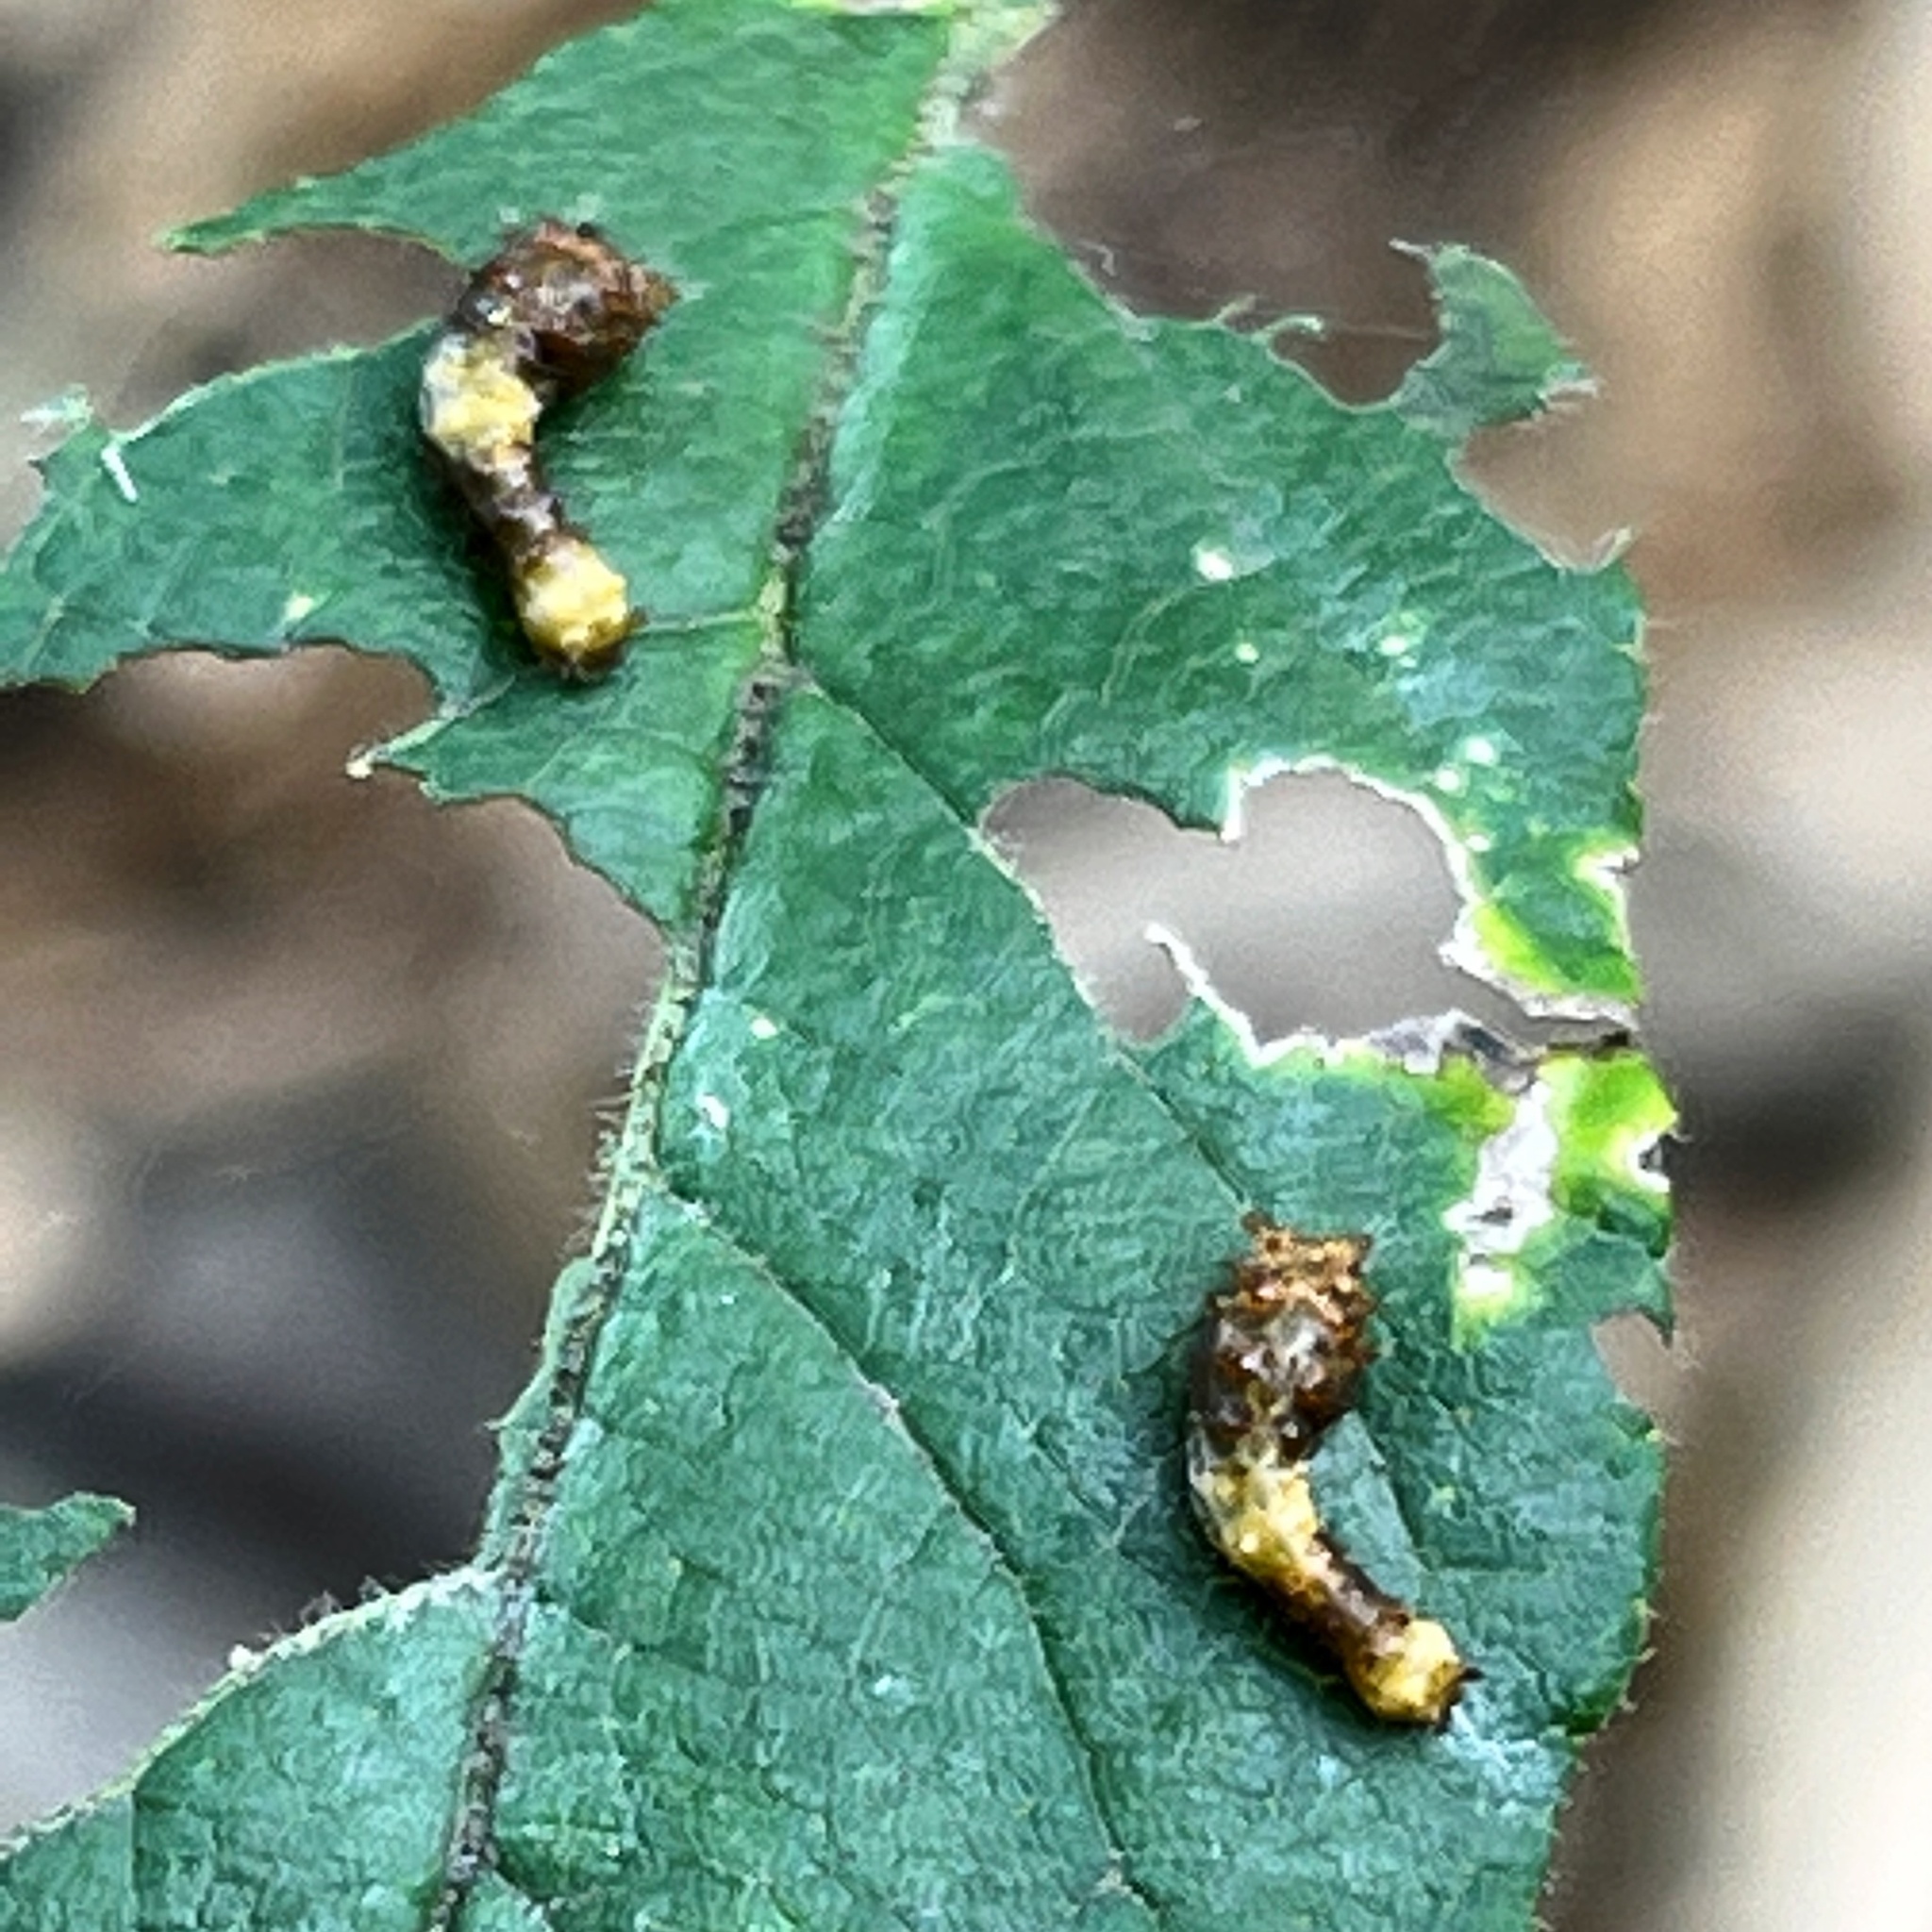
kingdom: Animalia
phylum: Arthropoda
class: Insecta
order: Lepidoptera
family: Papilionidae
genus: Papilio
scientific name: Papilio cresphontes
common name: Giant swallowtail
